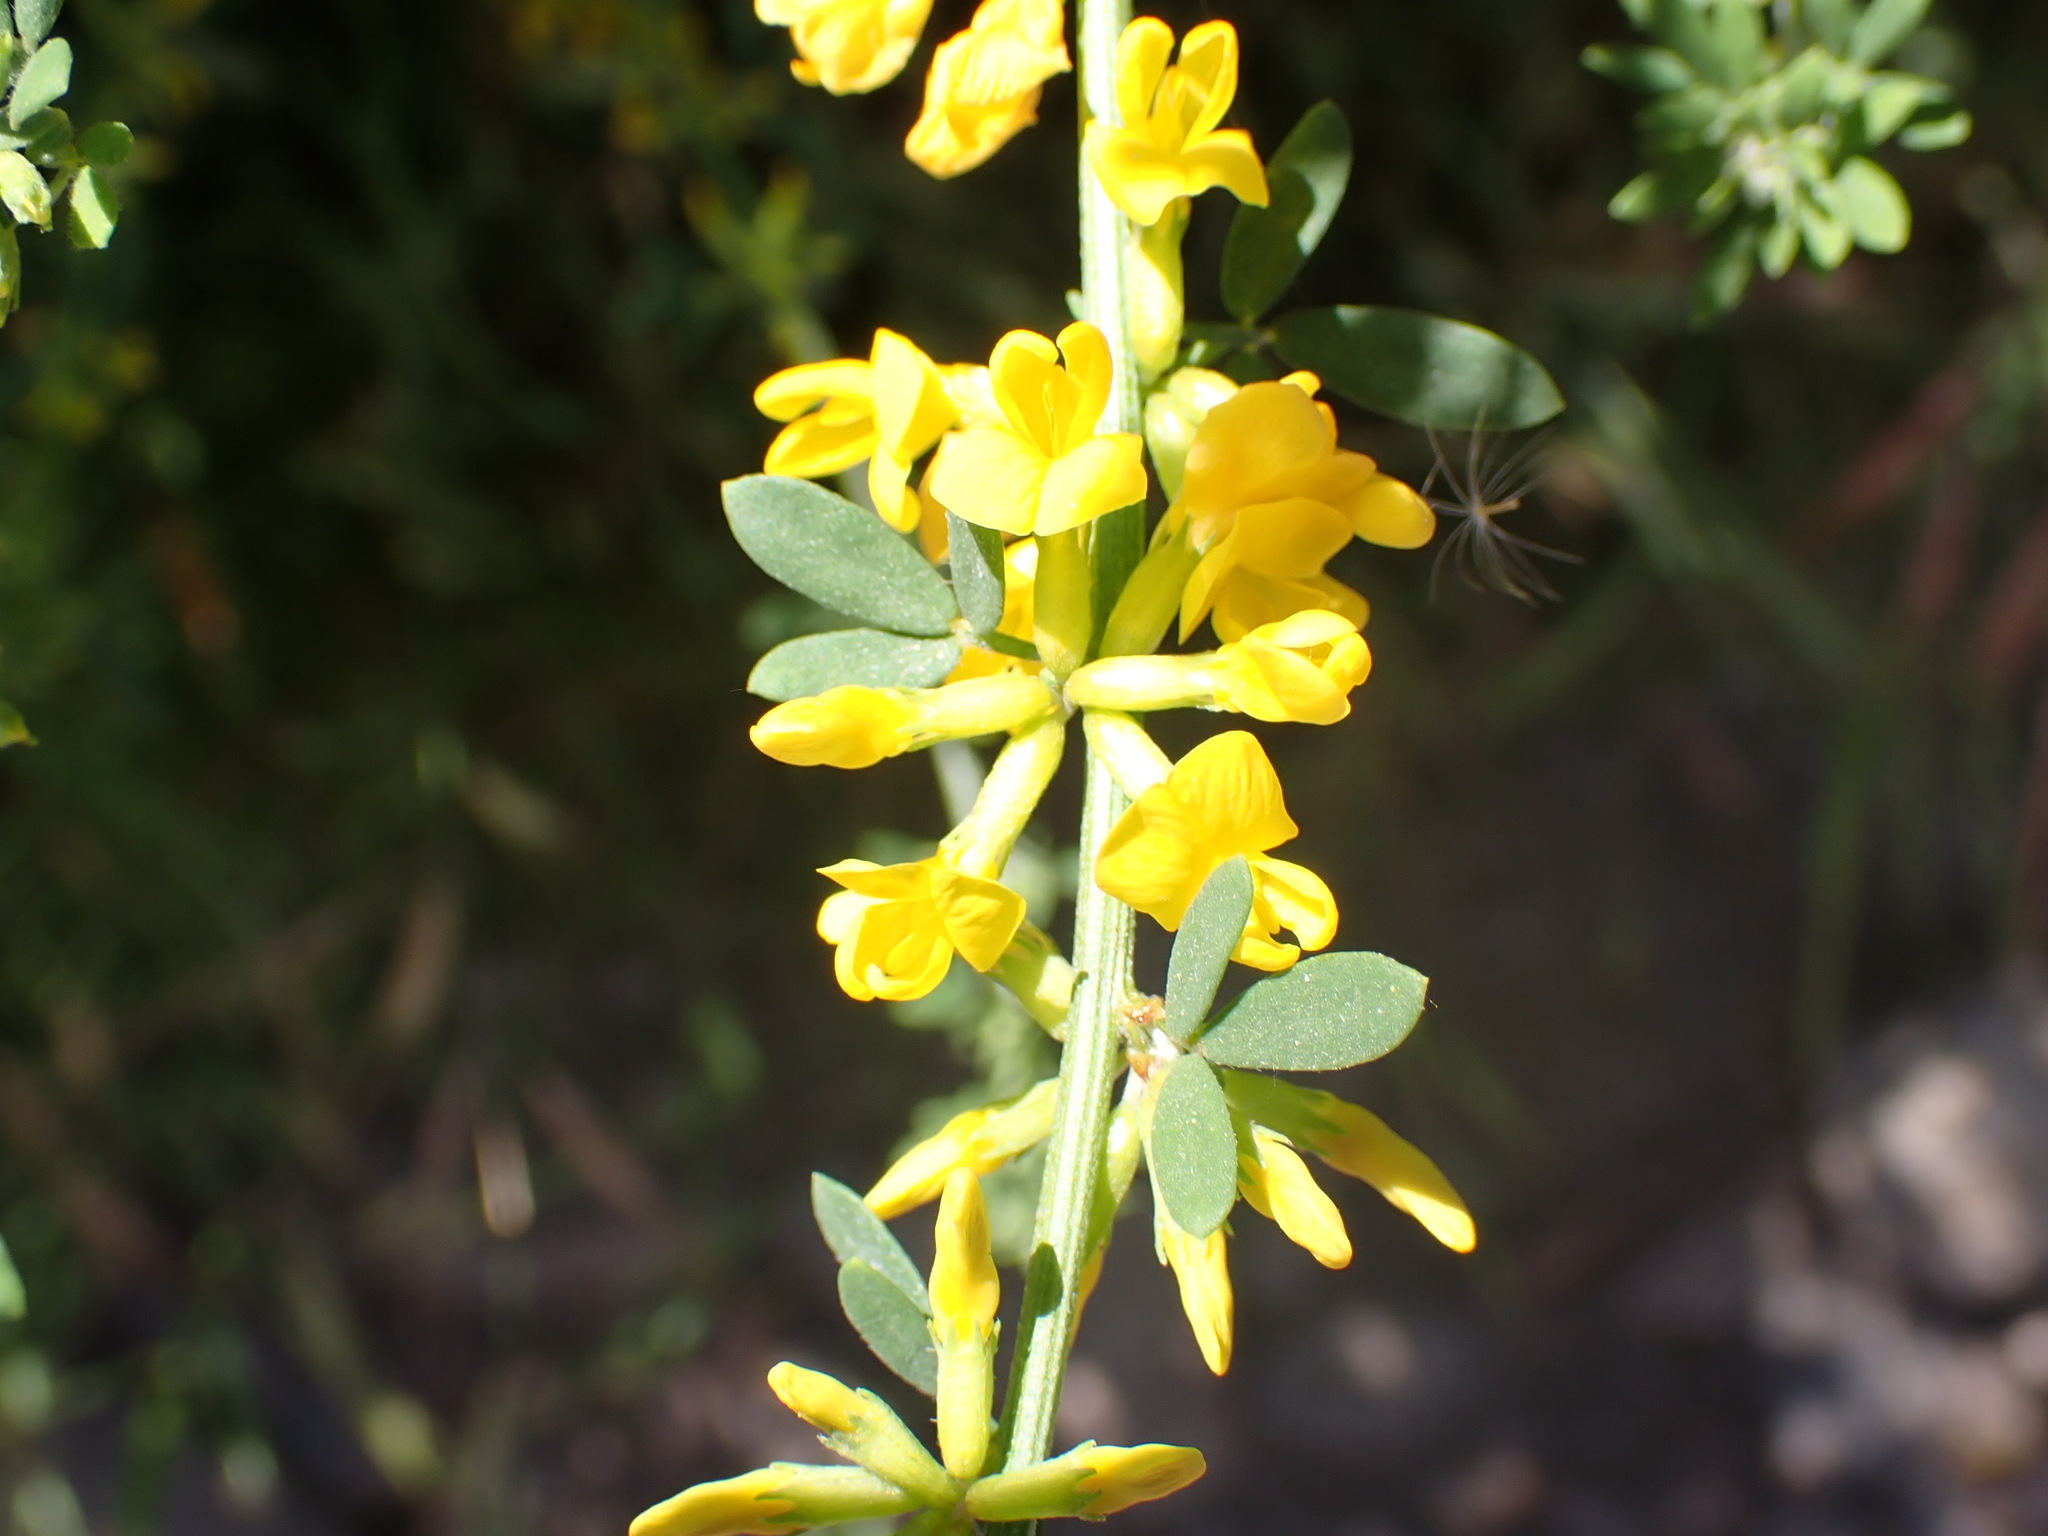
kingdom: Plantae
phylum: Tracheophyta
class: Magnoliopsida
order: Fabales
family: Fabaceae
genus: Acmispon
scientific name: Acmispon glaber
